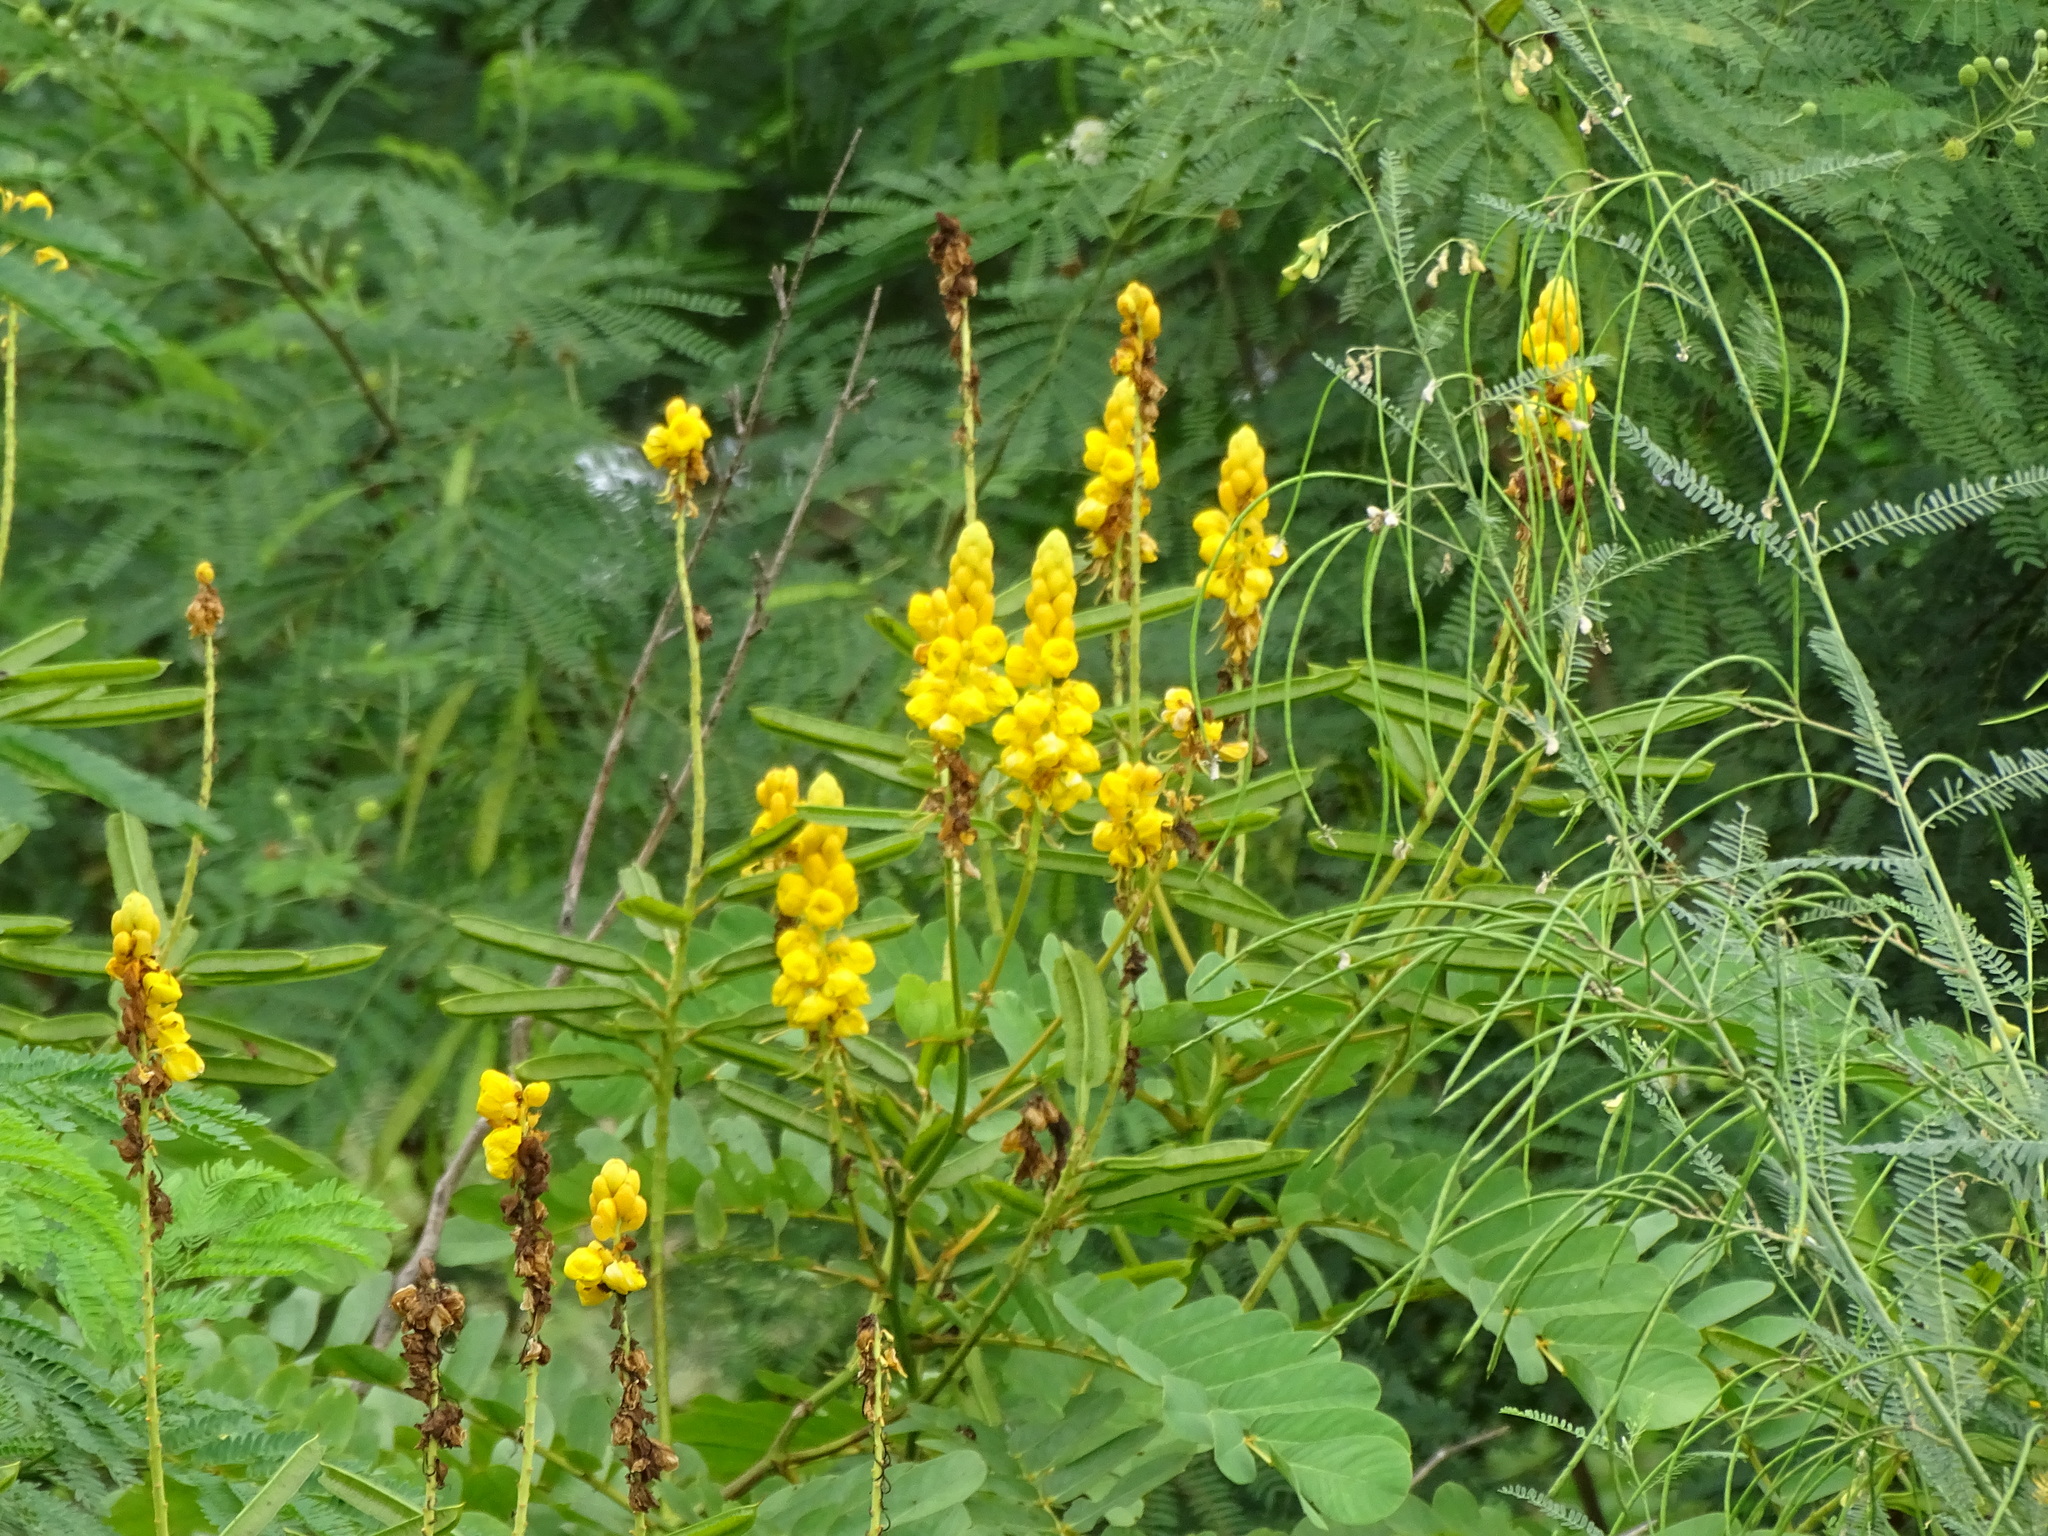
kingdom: Plantae
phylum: Tracheophyta
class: Magnoliopsida
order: Fabales
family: Fabaceae
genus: Senna
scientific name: Senna alata
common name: Emperor's candlesticks
